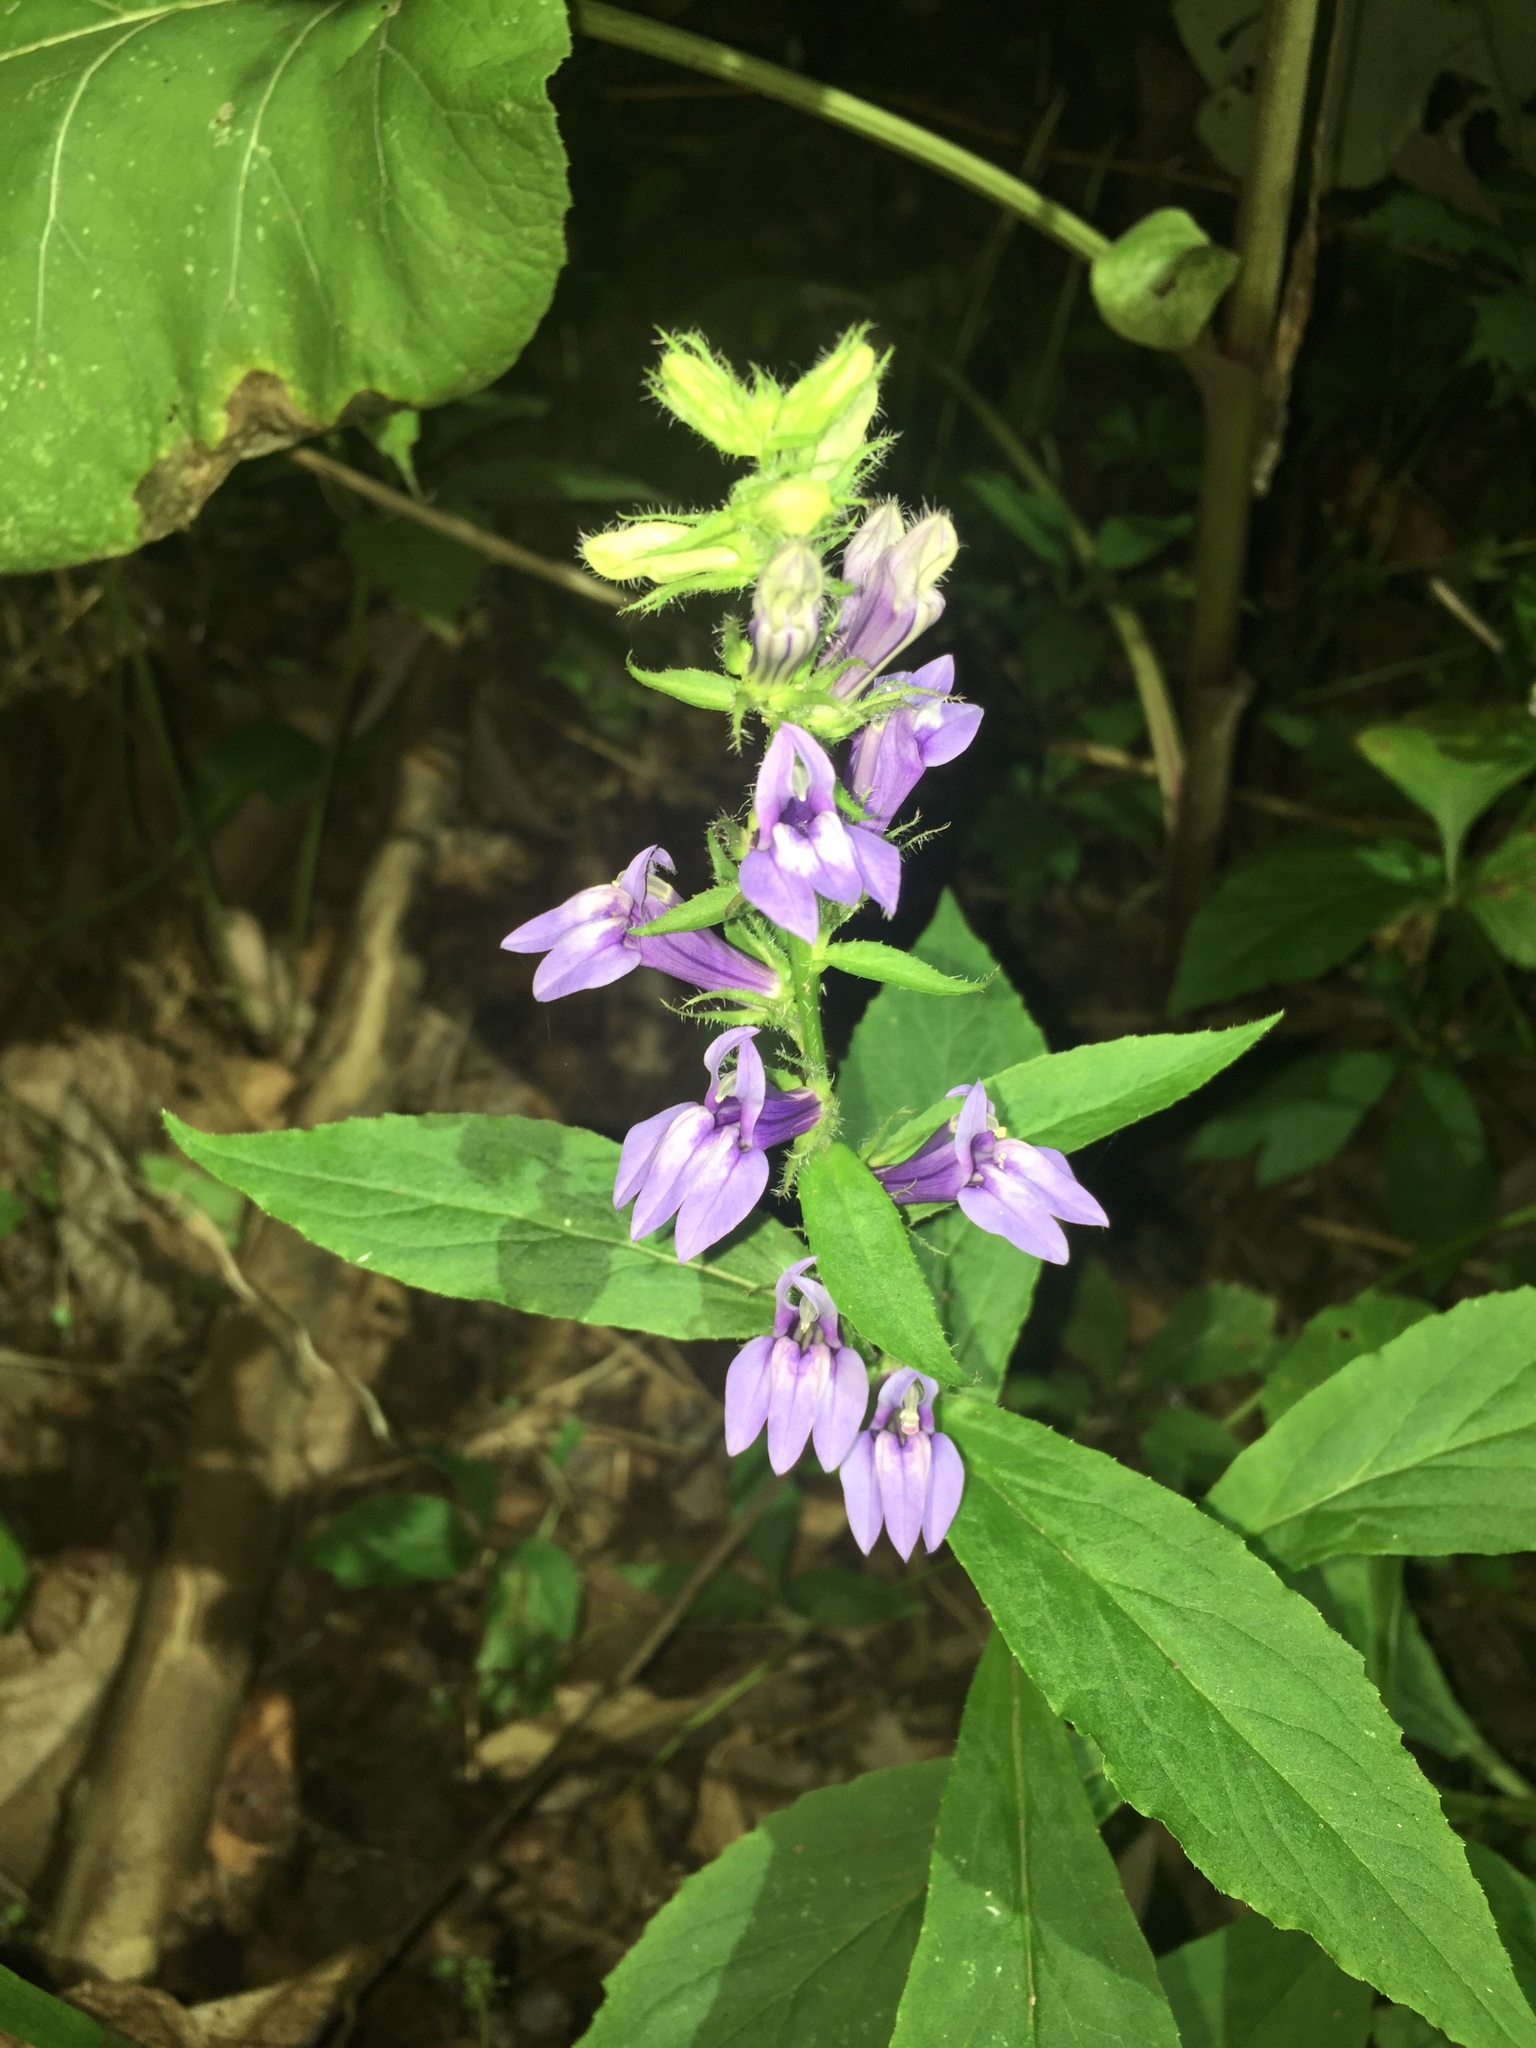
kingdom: Plantae
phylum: Tracheophyta
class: Magnoliopsida
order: Asterales
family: Campanulaceae
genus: Lobelia
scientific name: Lobelia siphilitica
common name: Great lobelia
